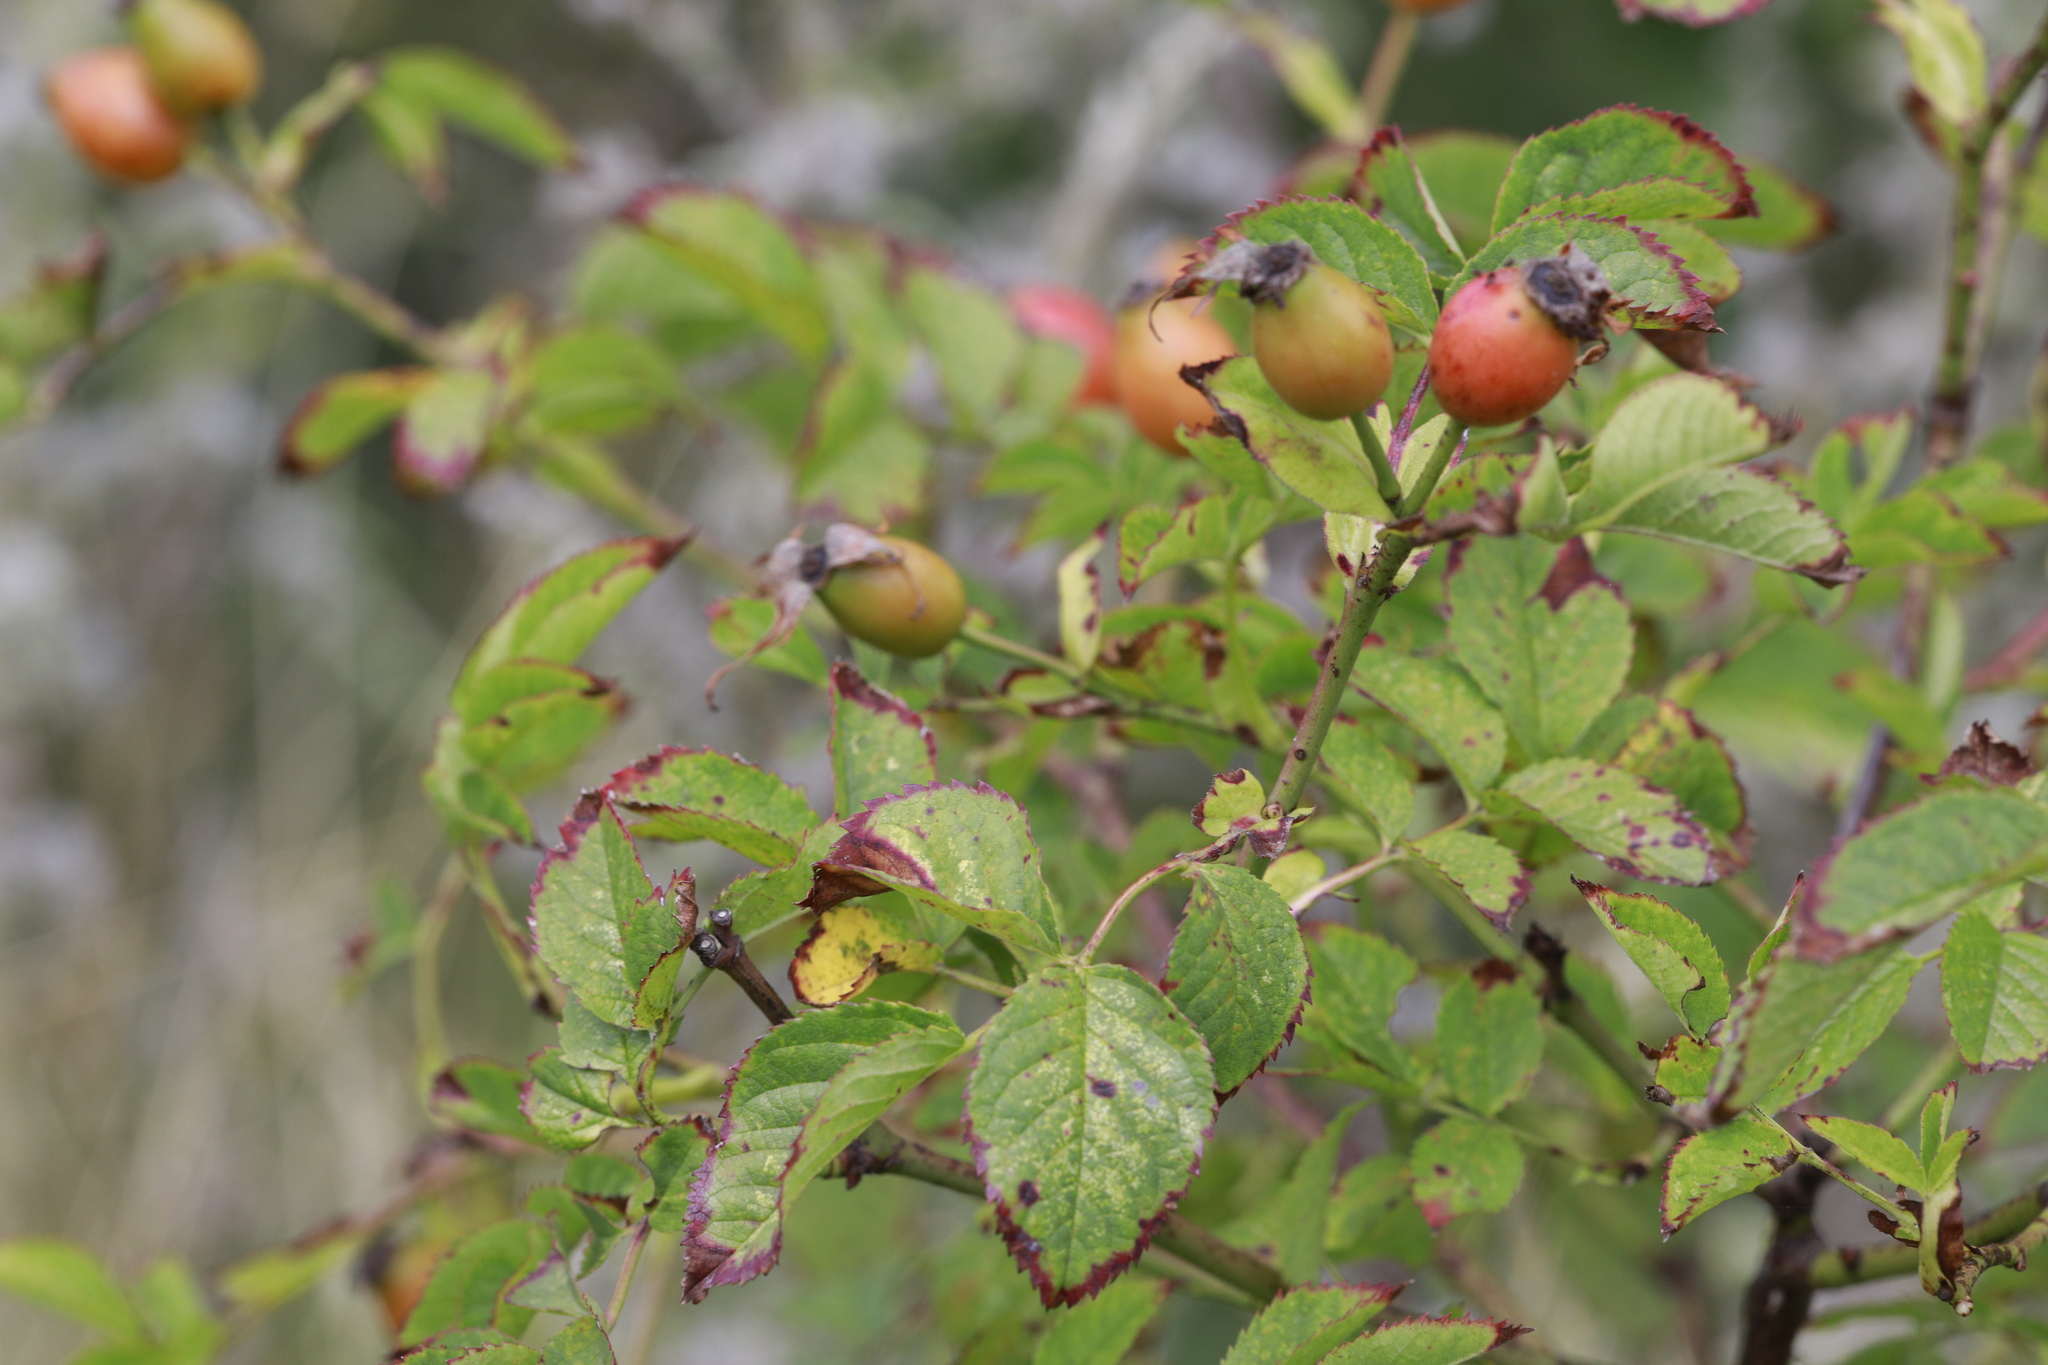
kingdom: Plantae
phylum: Tracheophyta
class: Magnoliopsida
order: Rosales
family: Rosaceae
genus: Rosa
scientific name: Rosa canina
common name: Dog rose
